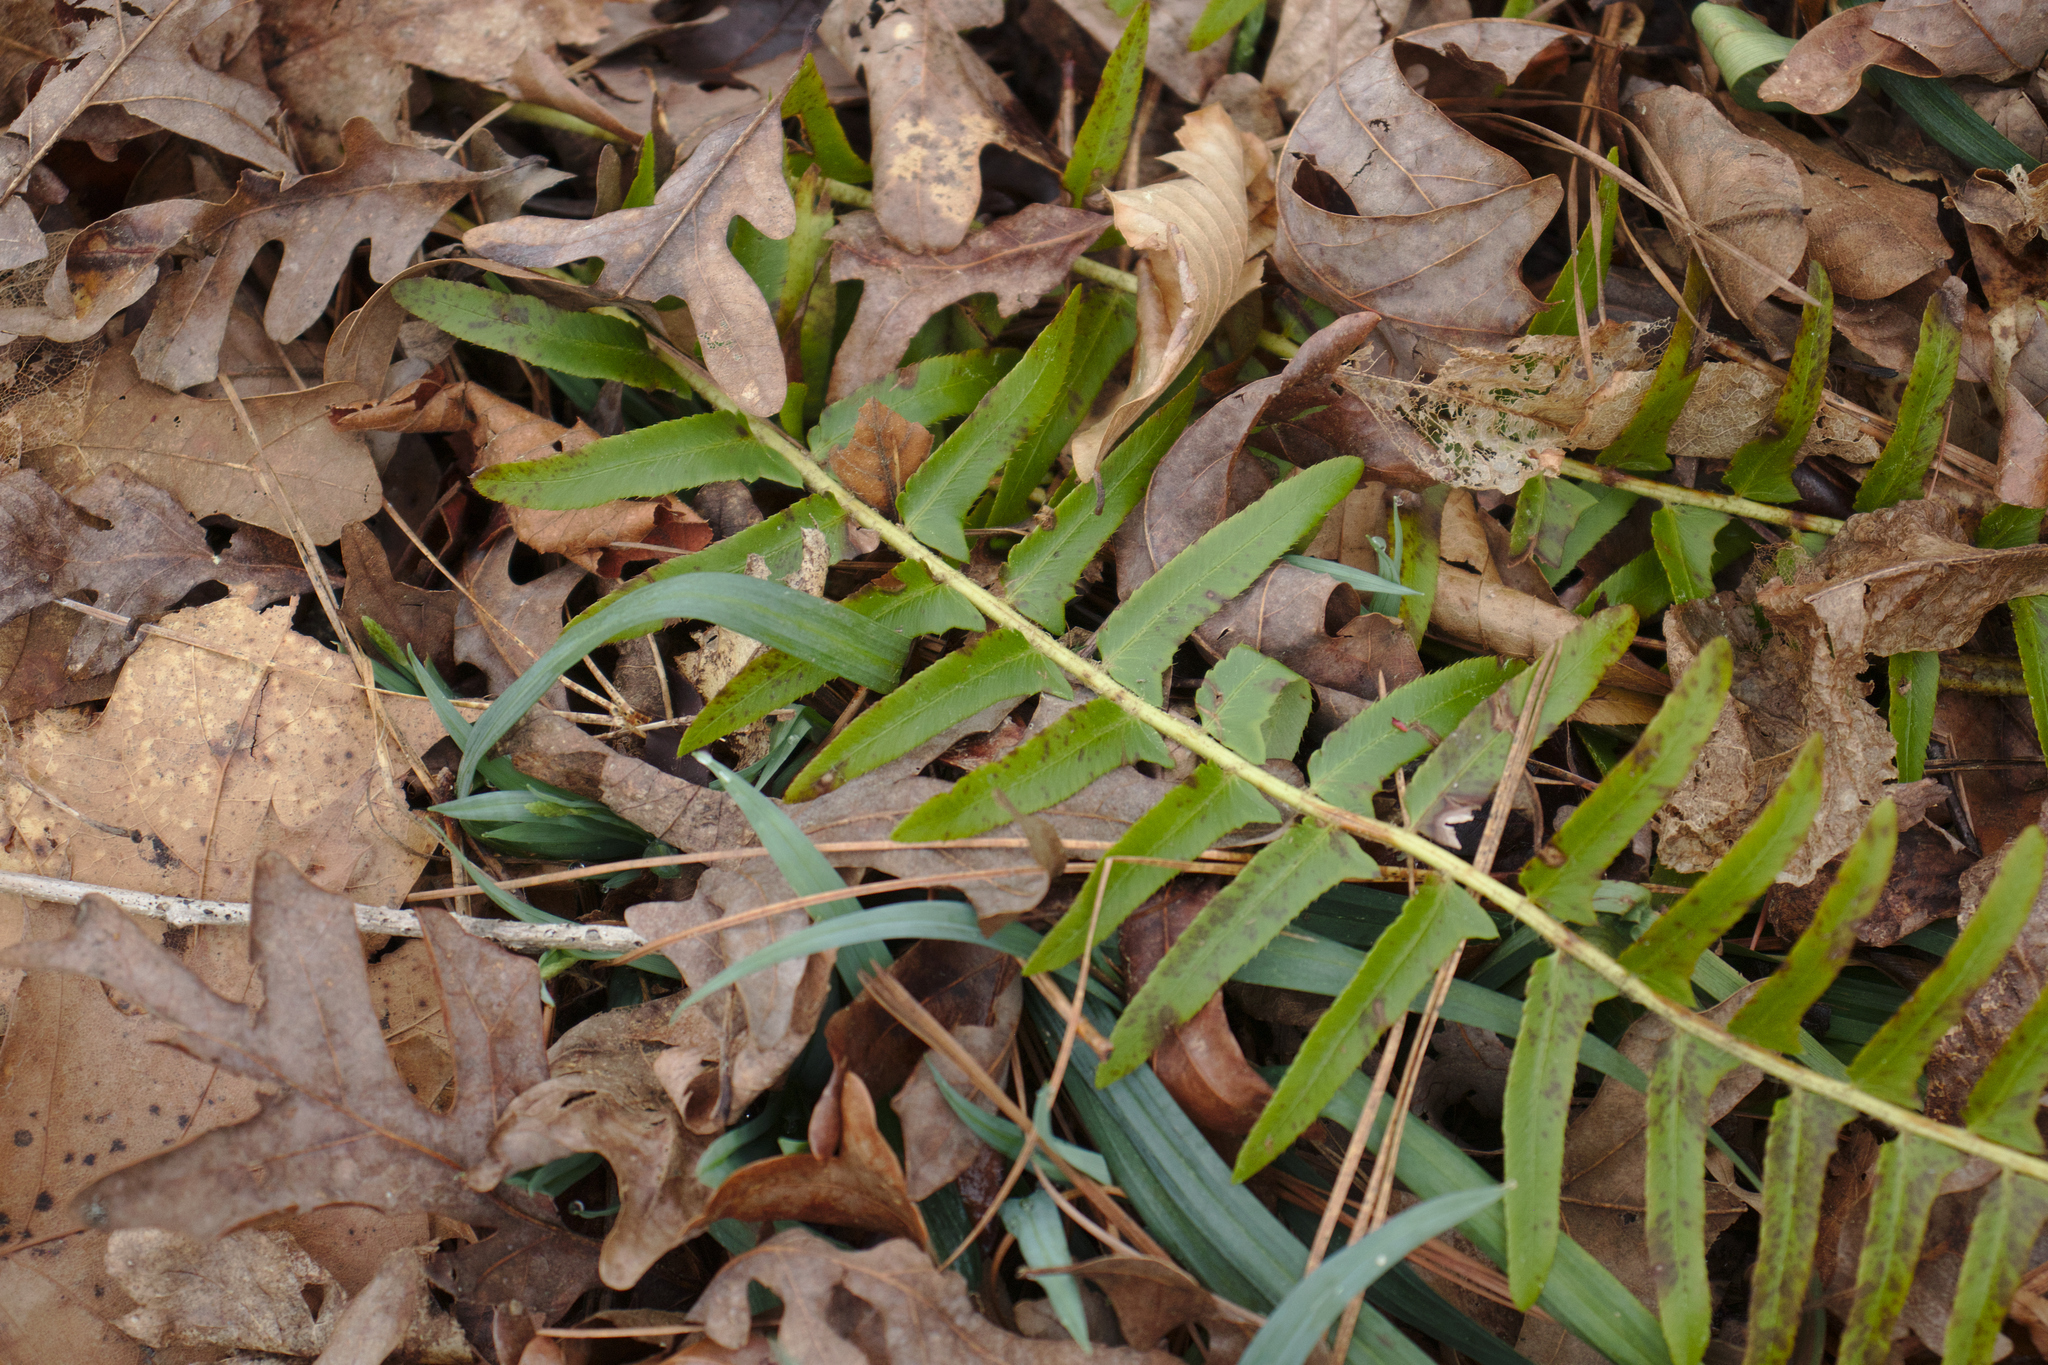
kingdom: Plantae
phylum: Tracheophyta
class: Polypodiopsida
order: Polypodiales
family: Dryopteridaceae
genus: Polystichum
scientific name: Polystichum acrostichoides
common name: Christmas fern
